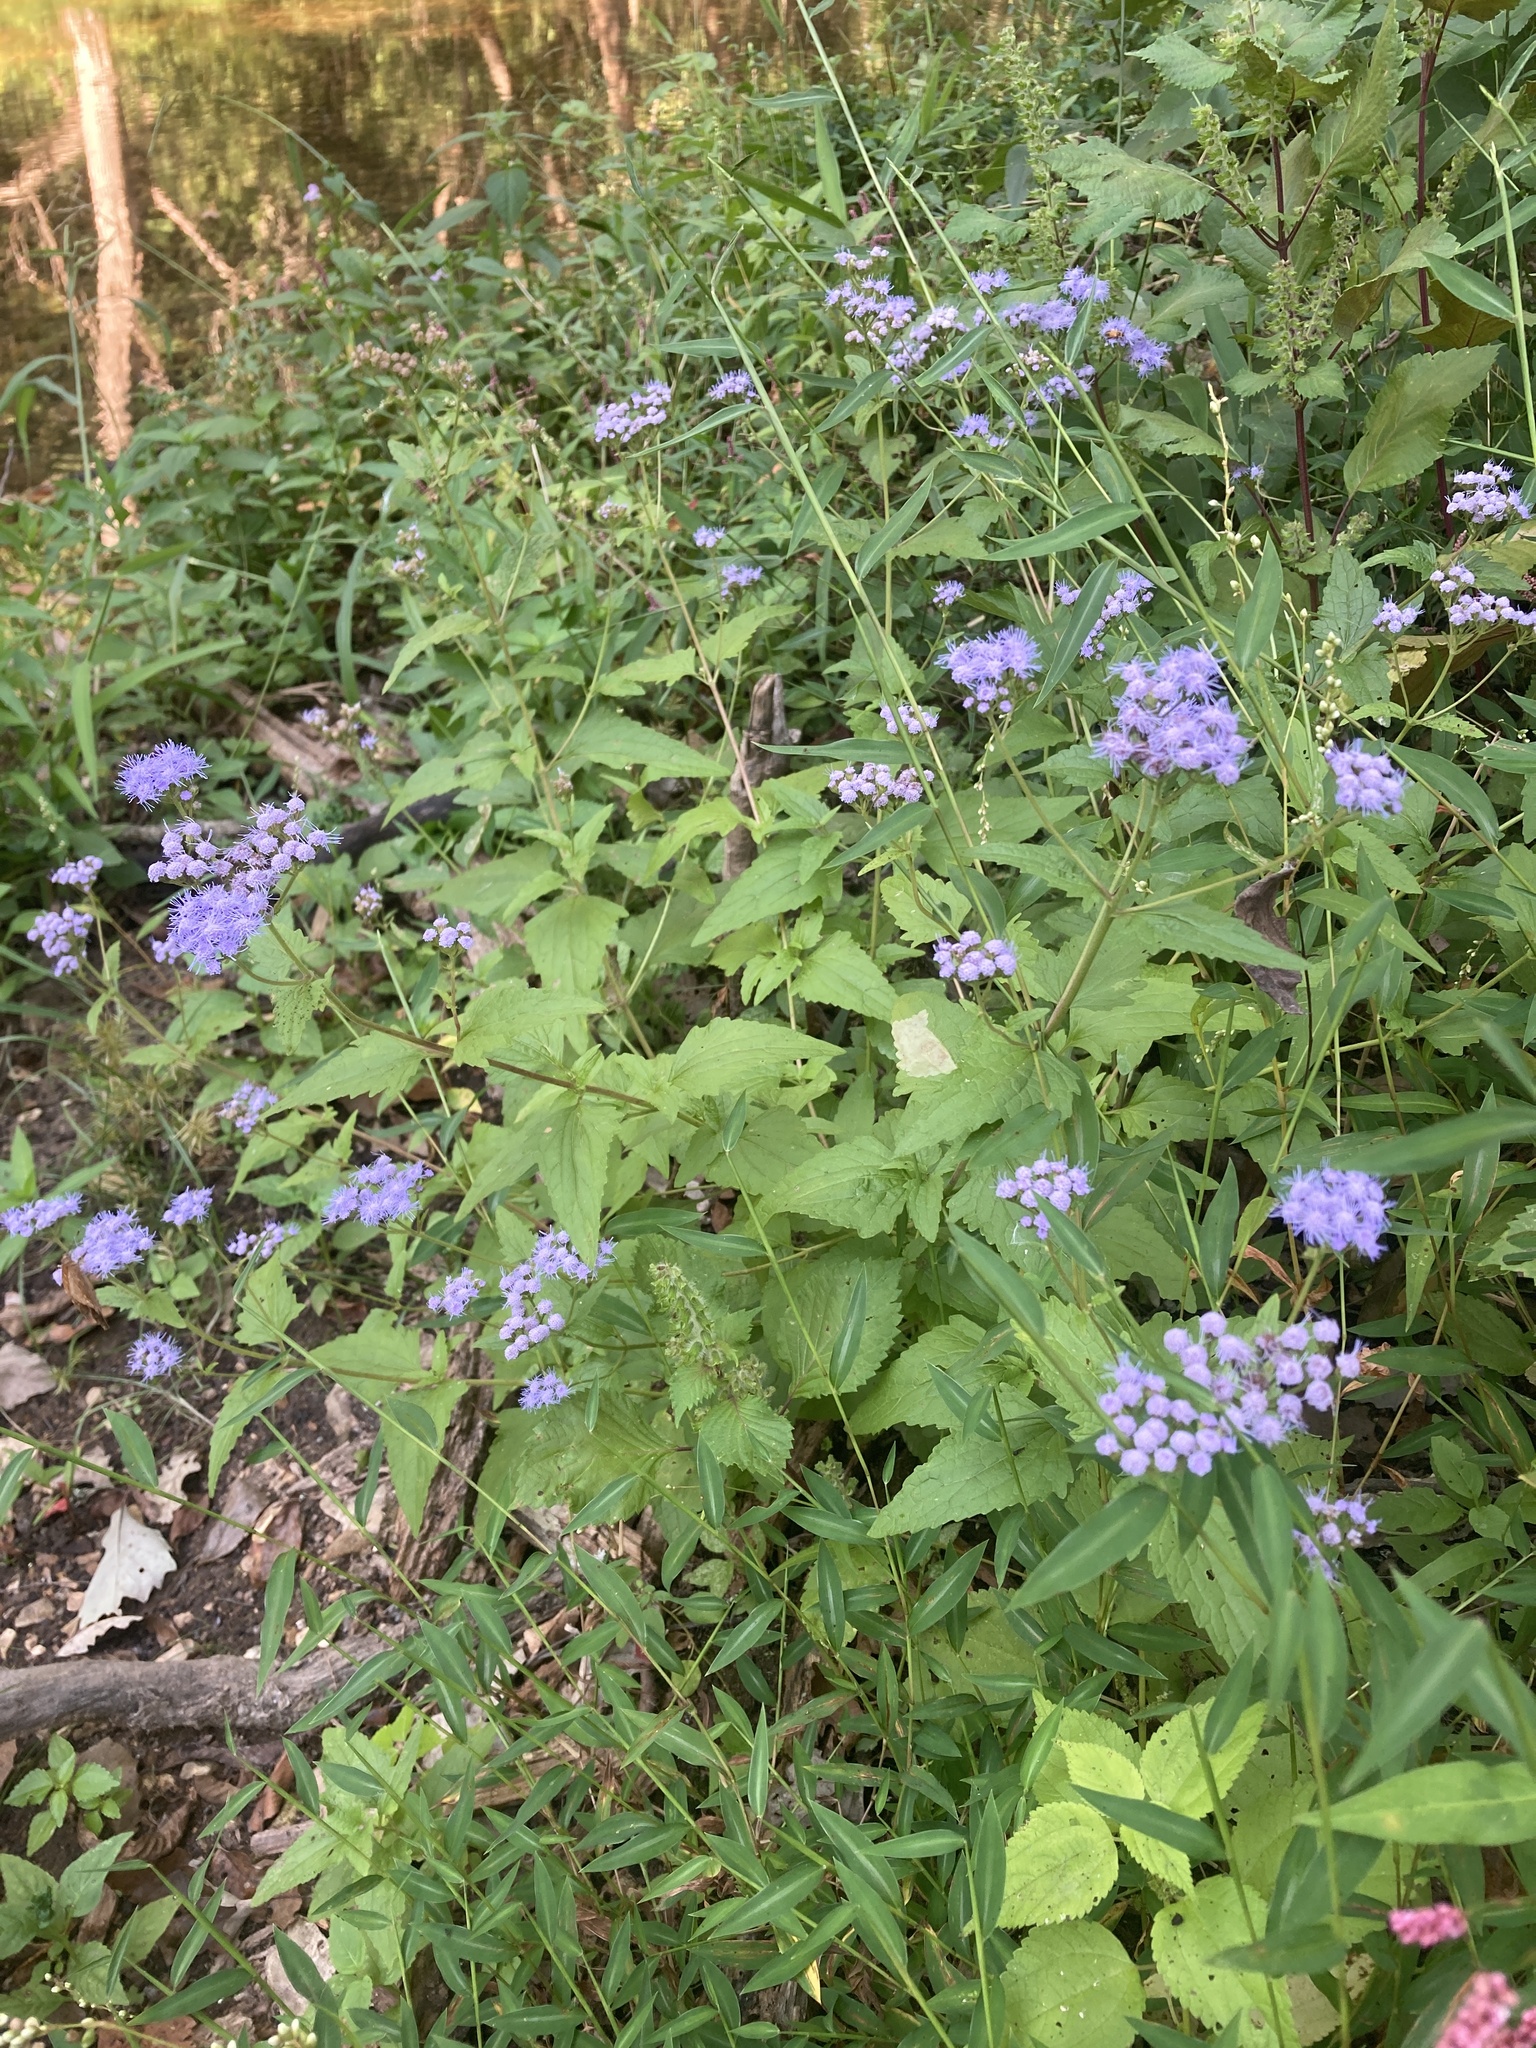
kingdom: Plantae
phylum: Tracheophyta
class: Magnoliopsida
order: Asterales
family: Asteraceae
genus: Conoclinium
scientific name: Conoclinium coelestinum
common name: Blue mistflower
